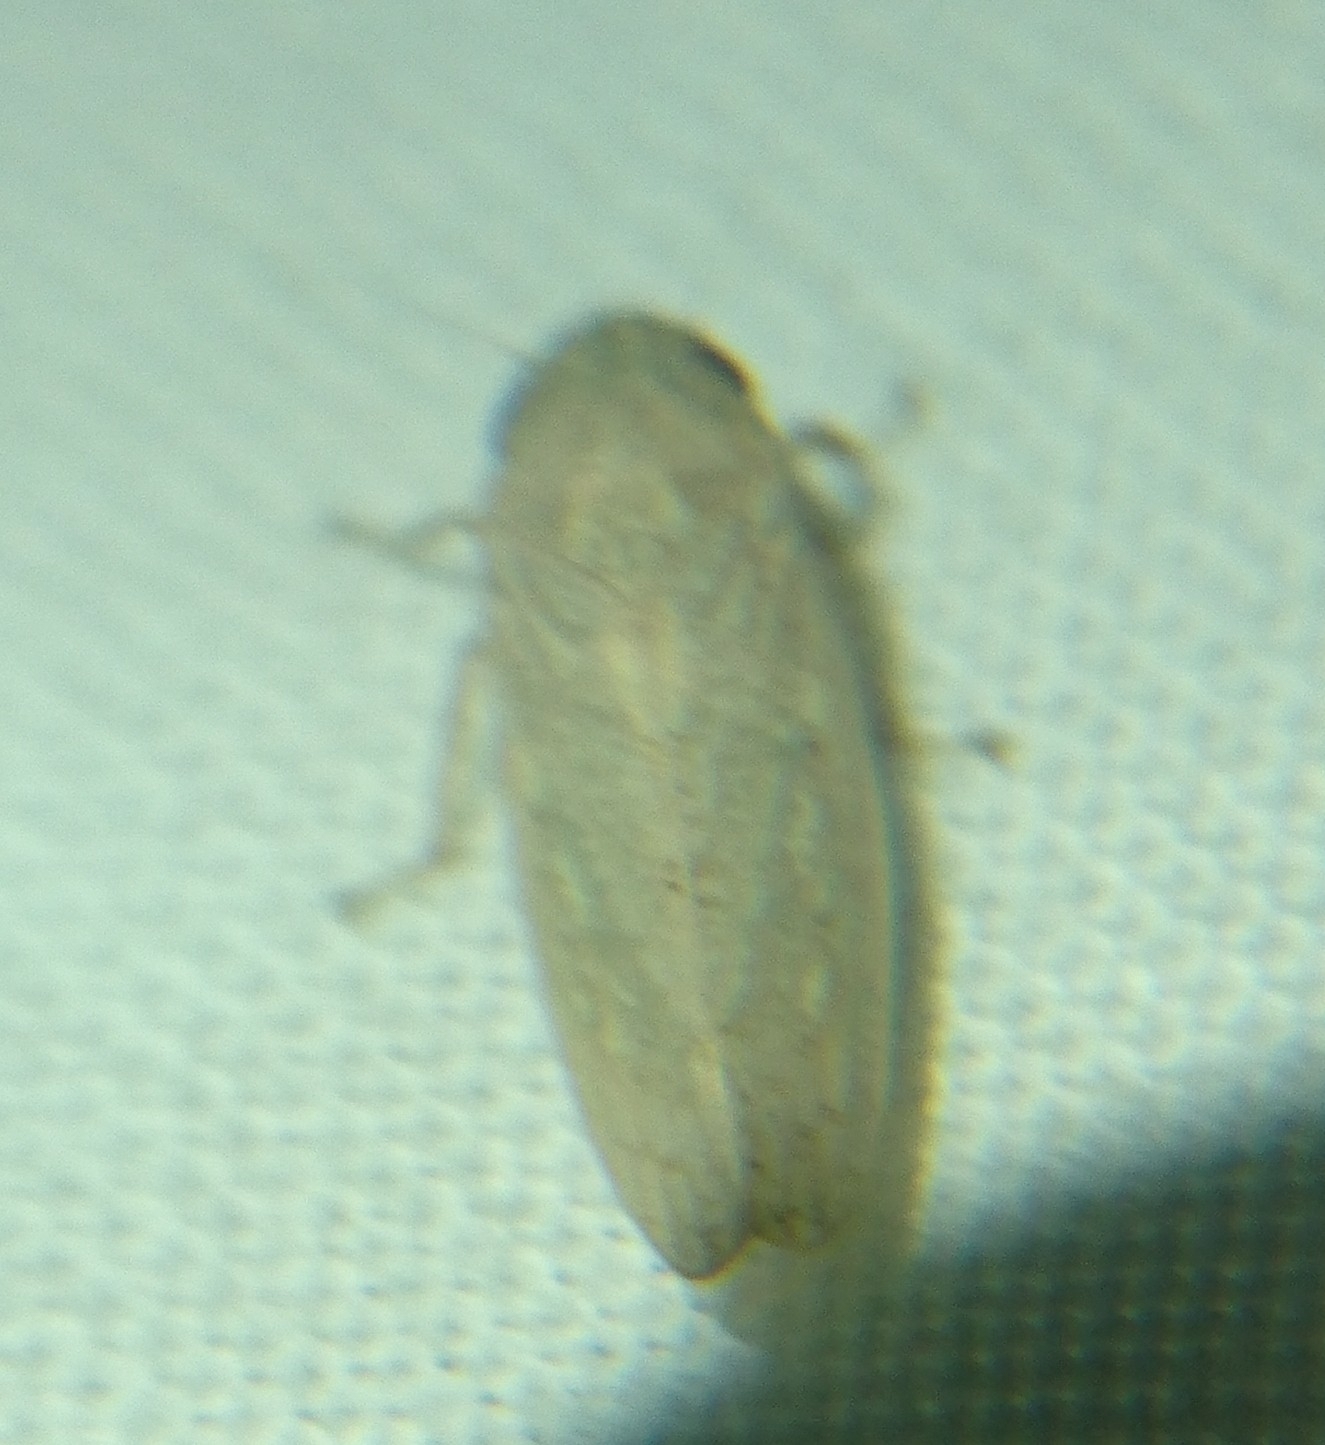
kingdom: Animalia
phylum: Arthropoda
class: Insecta
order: Hemiptera
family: Cicadellidae
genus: Curtara
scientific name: Curtara insularis
